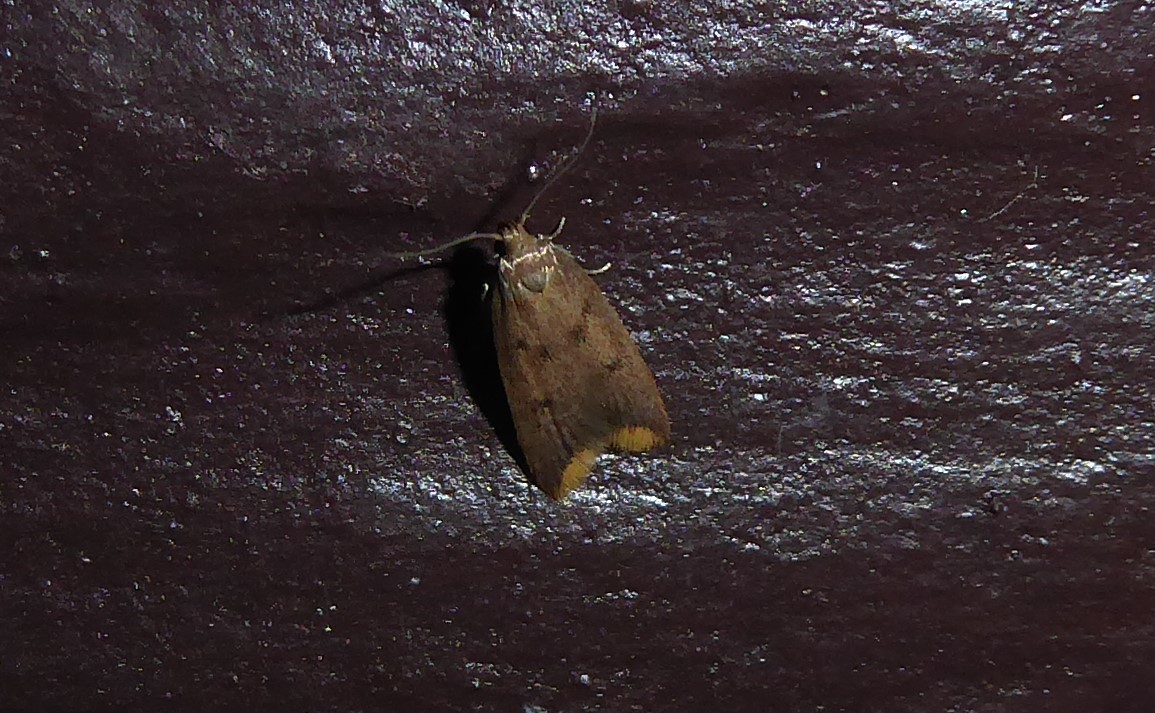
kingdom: Animalia
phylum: Arthropoda
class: Insecta
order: Lepidoptera
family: Oecophoridae
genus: Tachystola
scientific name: Tachystola acroxantha
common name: Ruddy streak
